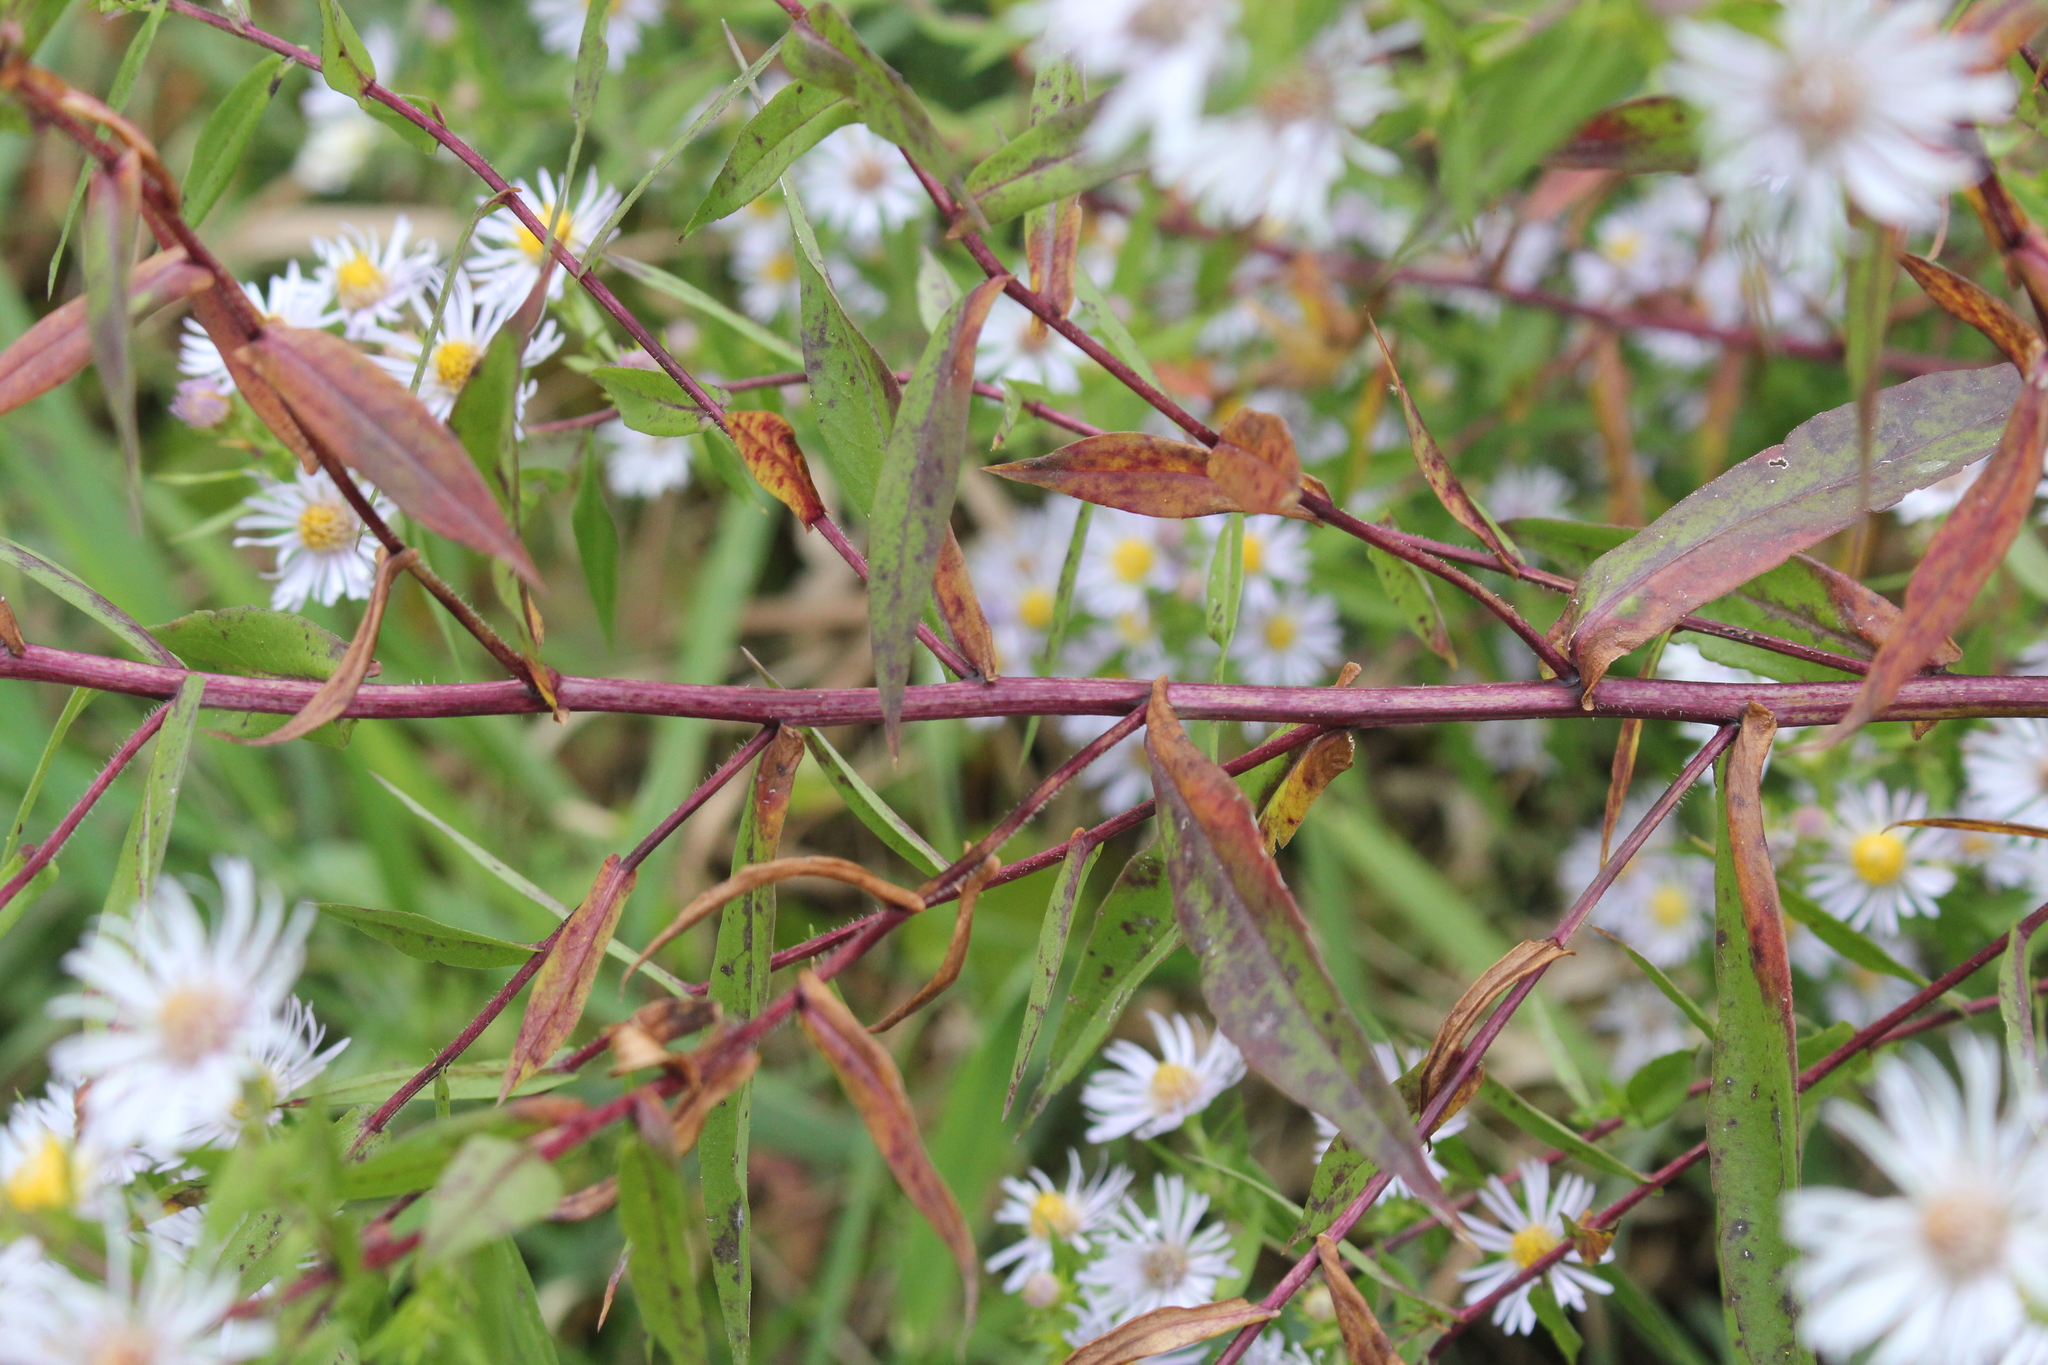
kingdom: Plantae
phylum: Tracheophyta
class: Magnoliopsida
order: Asterales
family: Asteraceae
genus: Symphyotrichum
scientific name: Symphyotrichum firmum
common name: Shining aster
